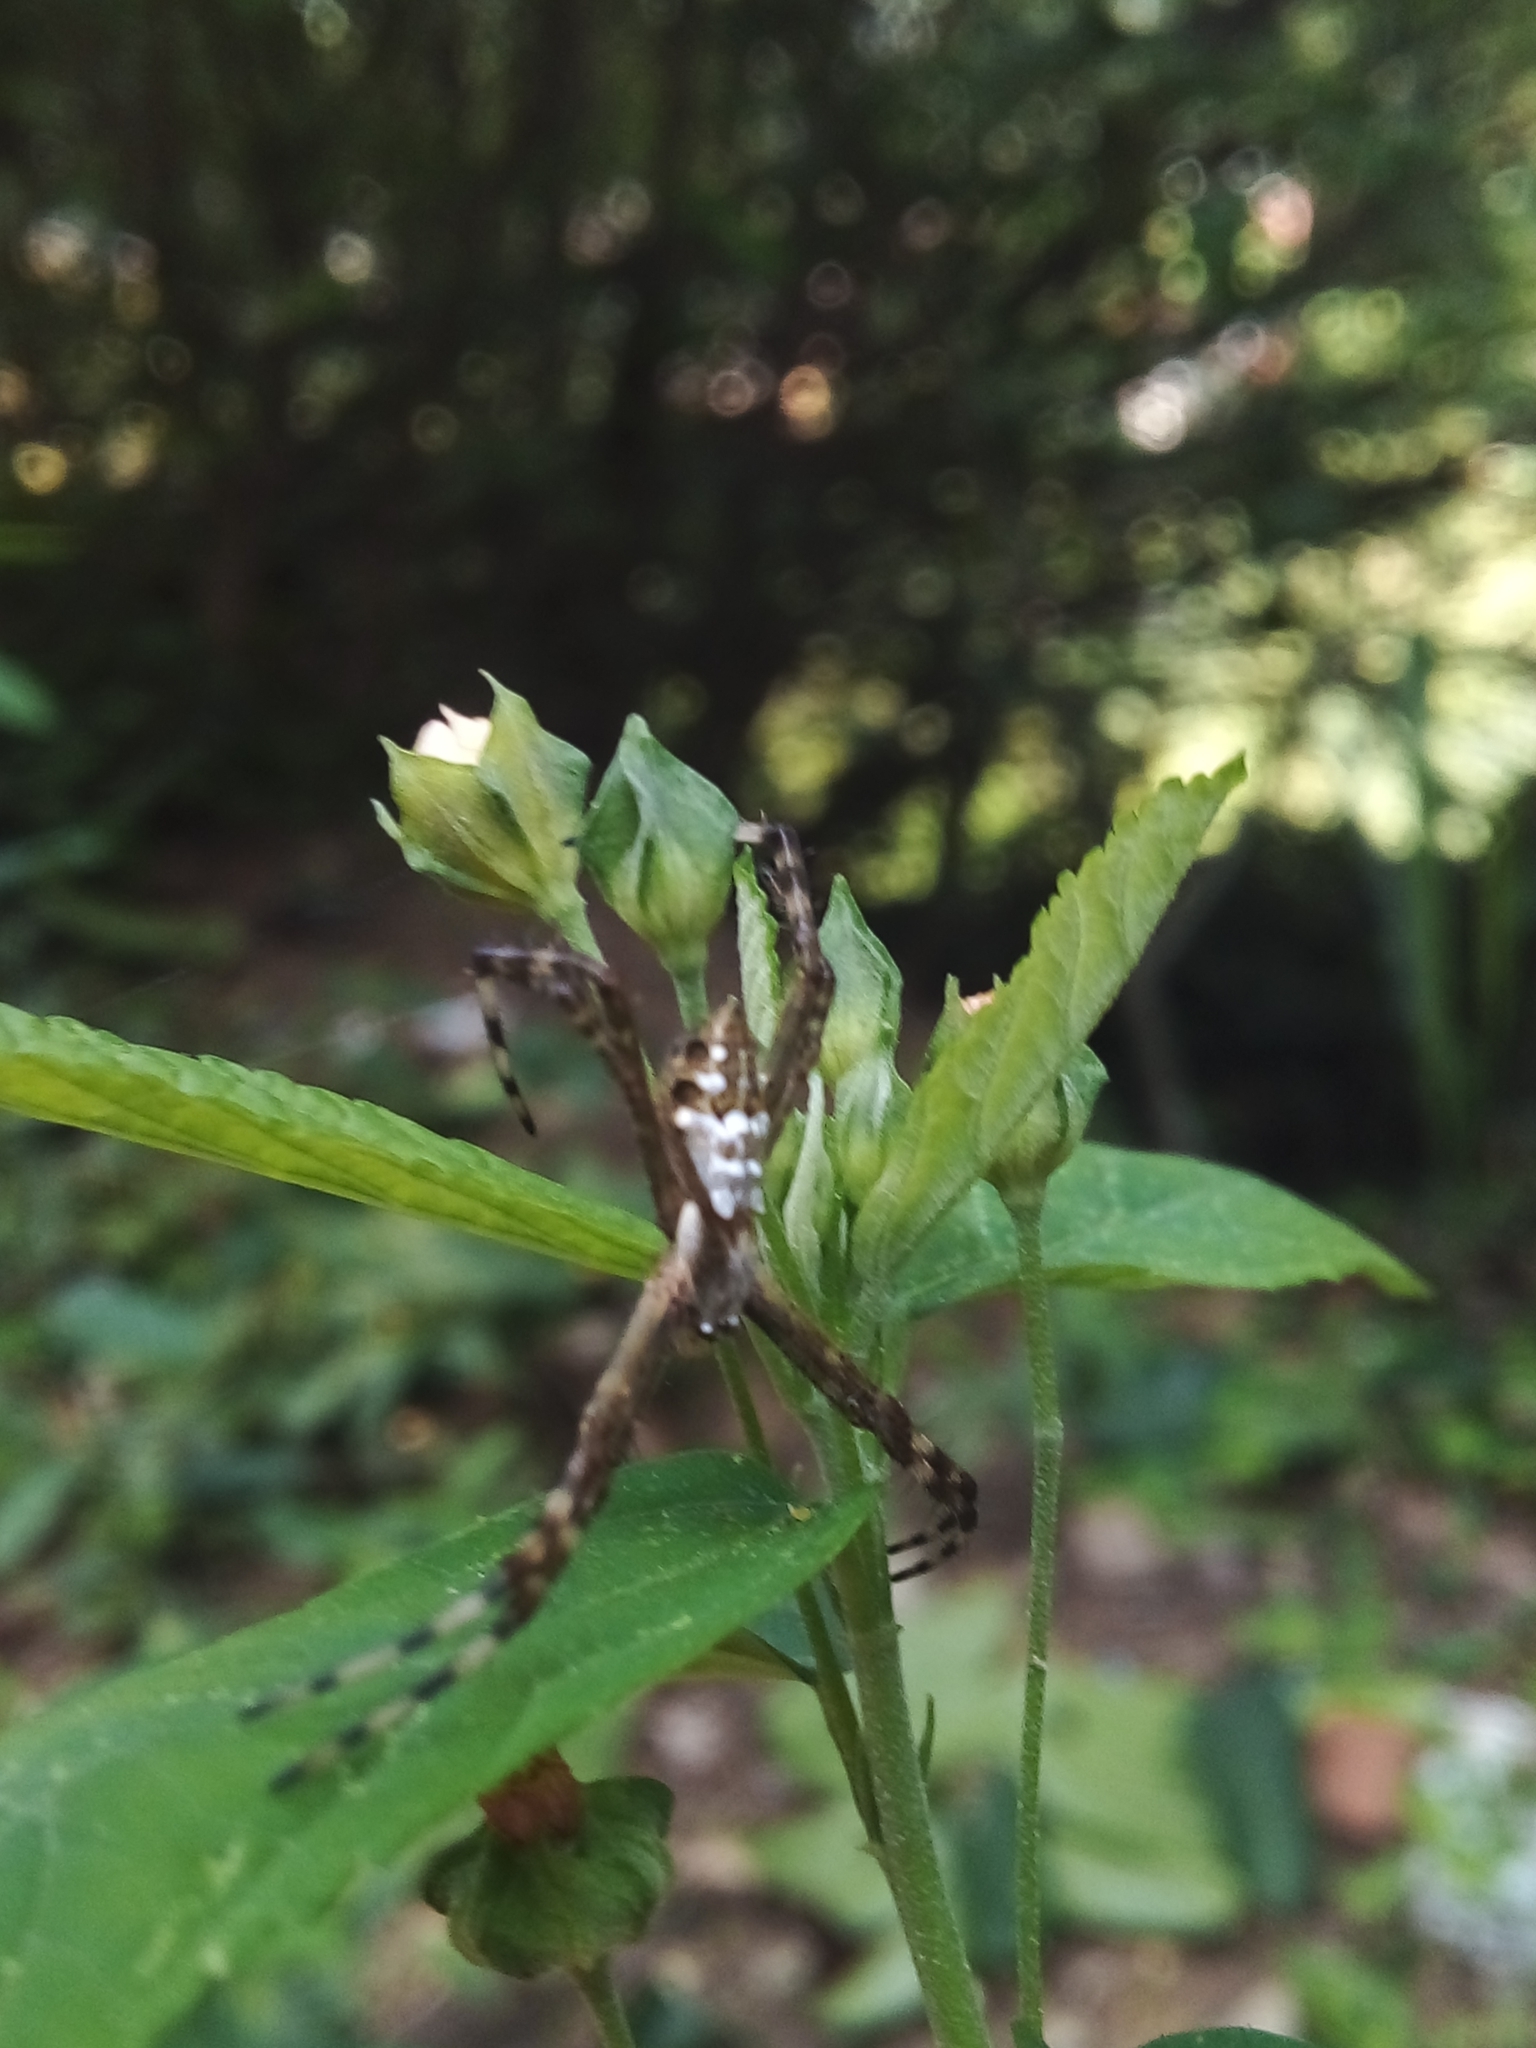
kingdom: Animalia
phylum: Arthropoda
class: Arachnida
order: Araneae
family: Araneidae
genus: Argiope
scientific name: Argiope argentata
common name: Orb weavers
